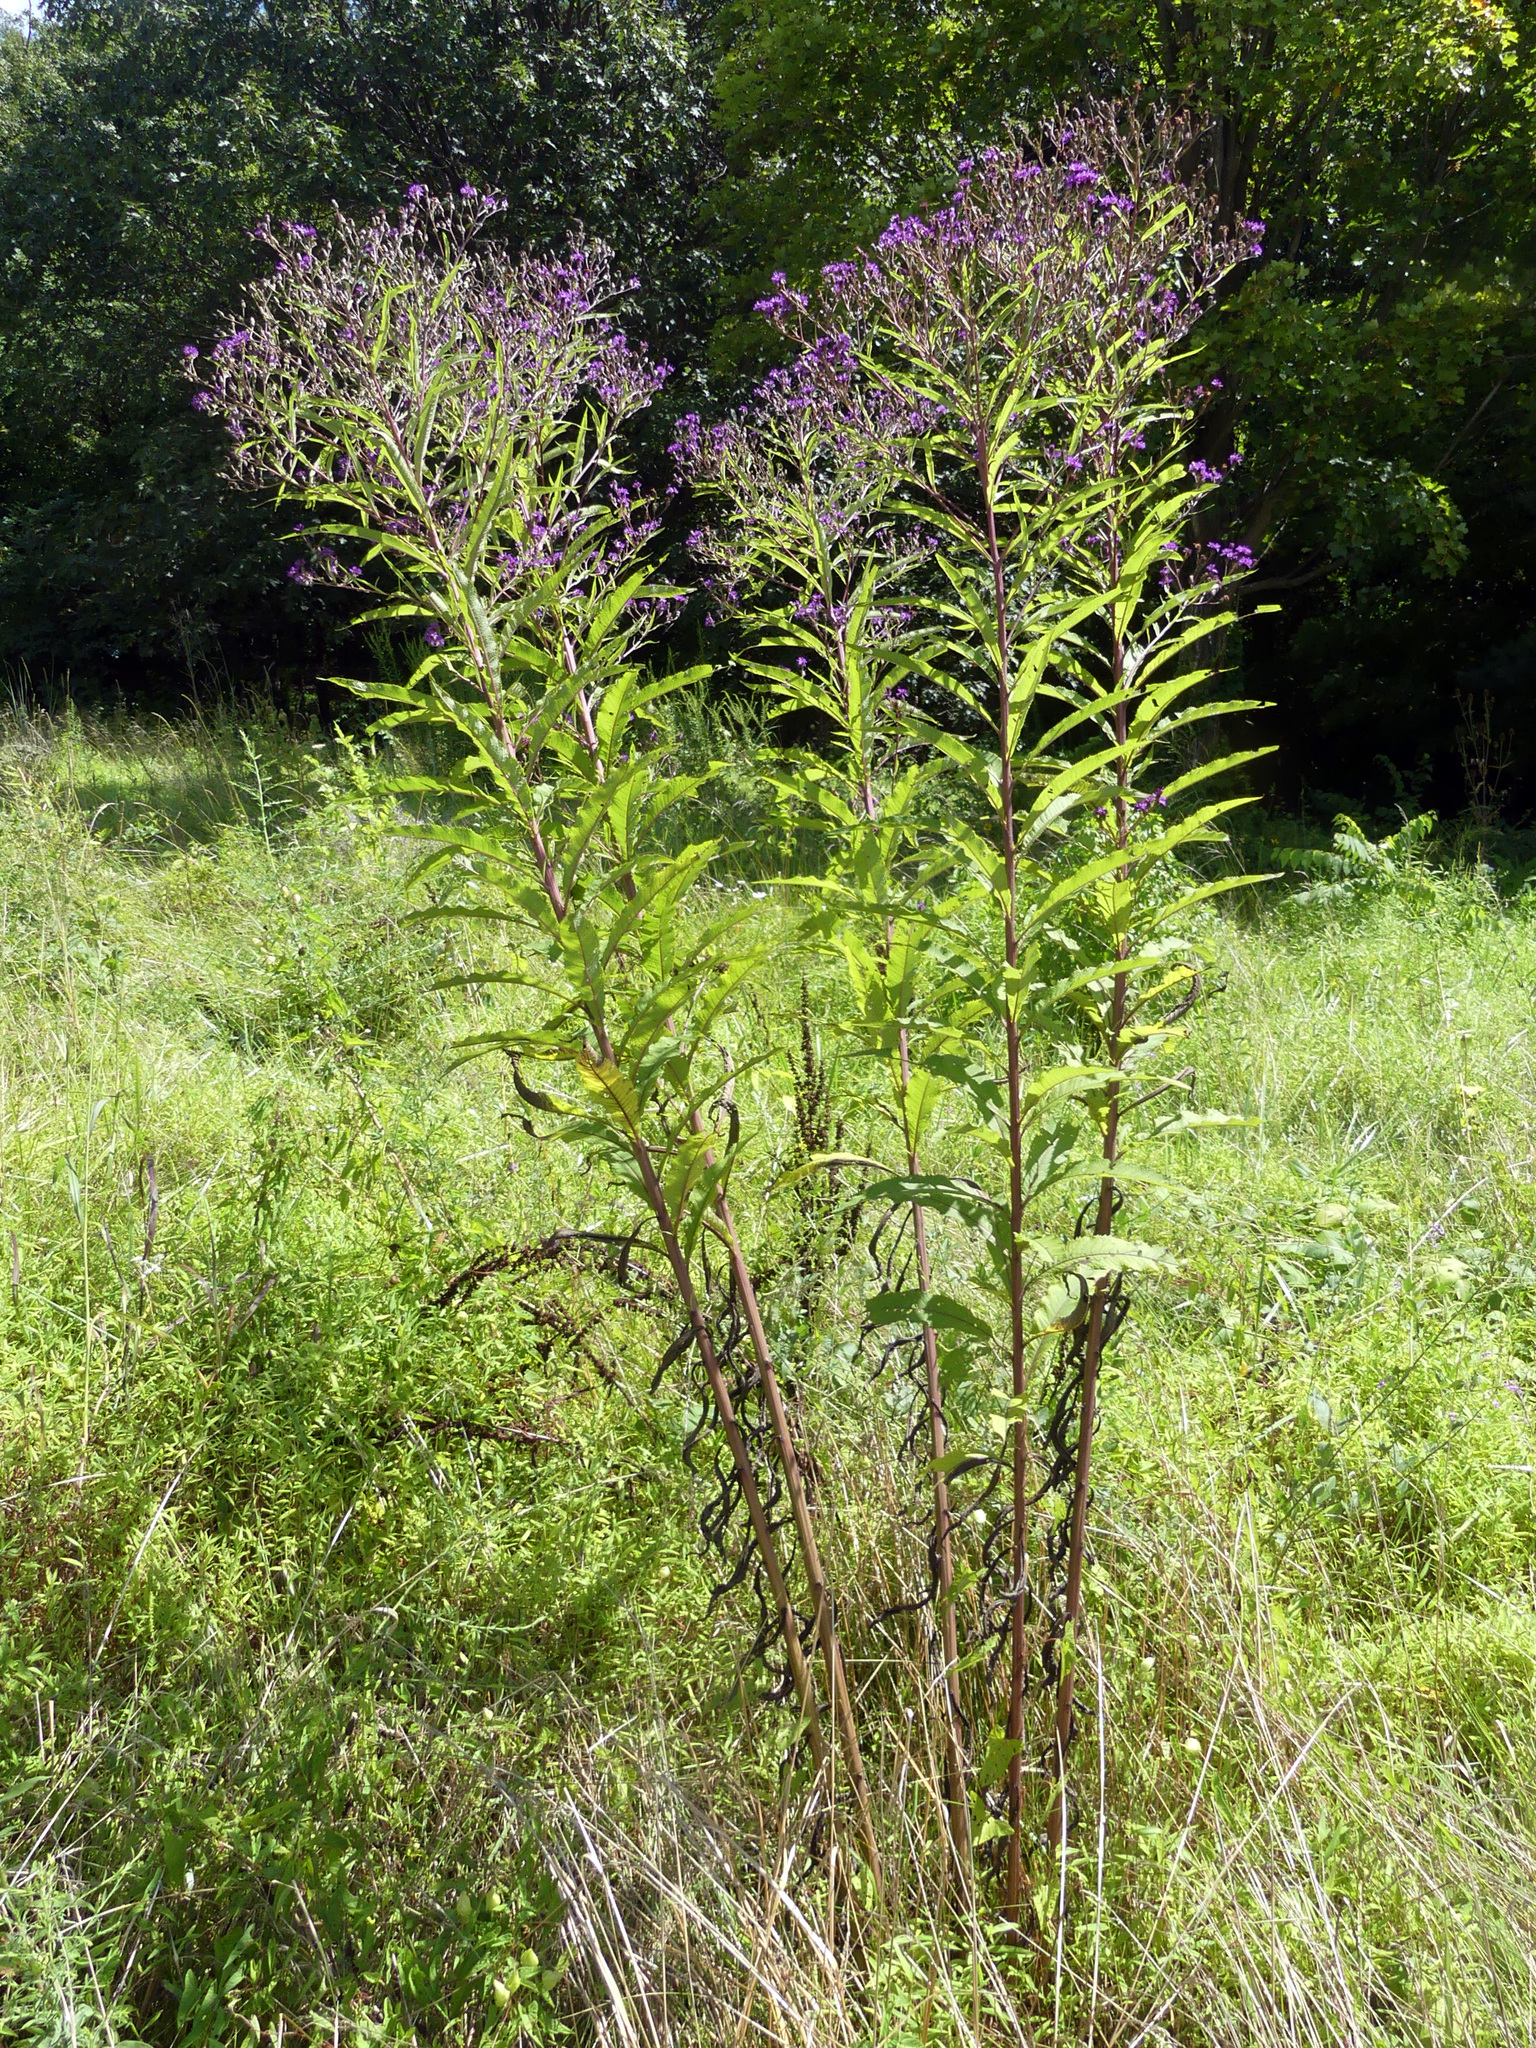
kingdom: Plantae
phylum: Tracheophyta
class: Magnoliopsida
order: Asterales
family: Asteraceae
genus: Vernonia
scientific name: Vernonia noveboracensis
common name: New york ironweed
